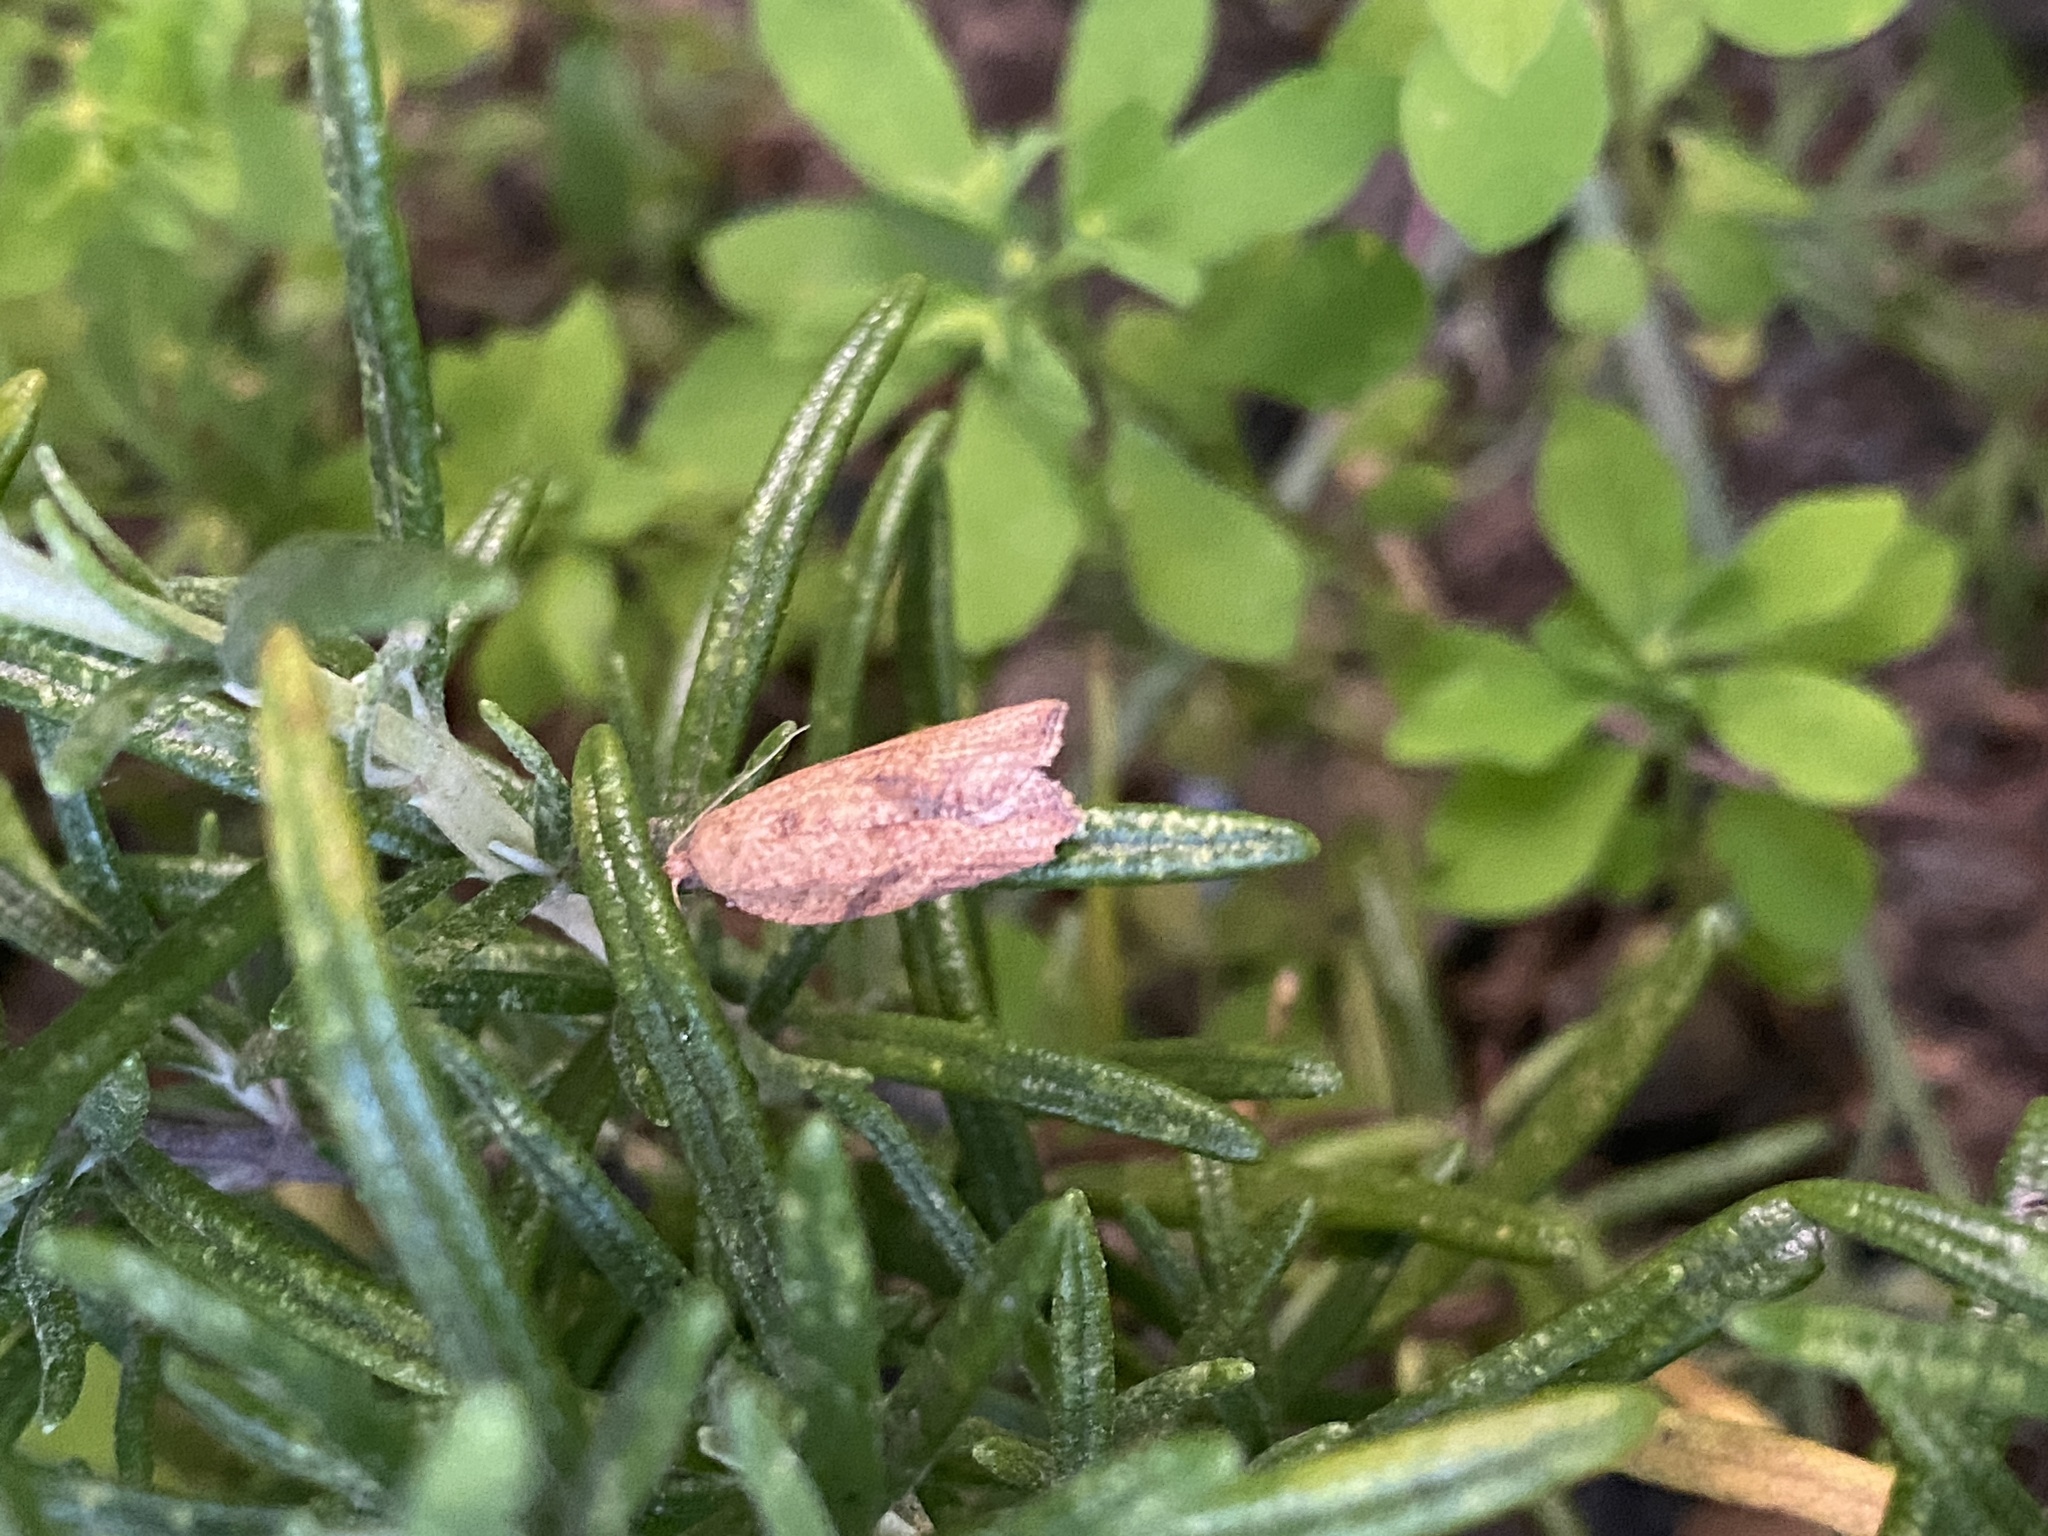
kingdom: Animalia
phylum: Arthropoda
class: Insecta
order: Lepidoptera
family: Tortricidae
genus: Epiphyas
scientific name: Epiphyas postvittana
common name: Light brown apple moth
